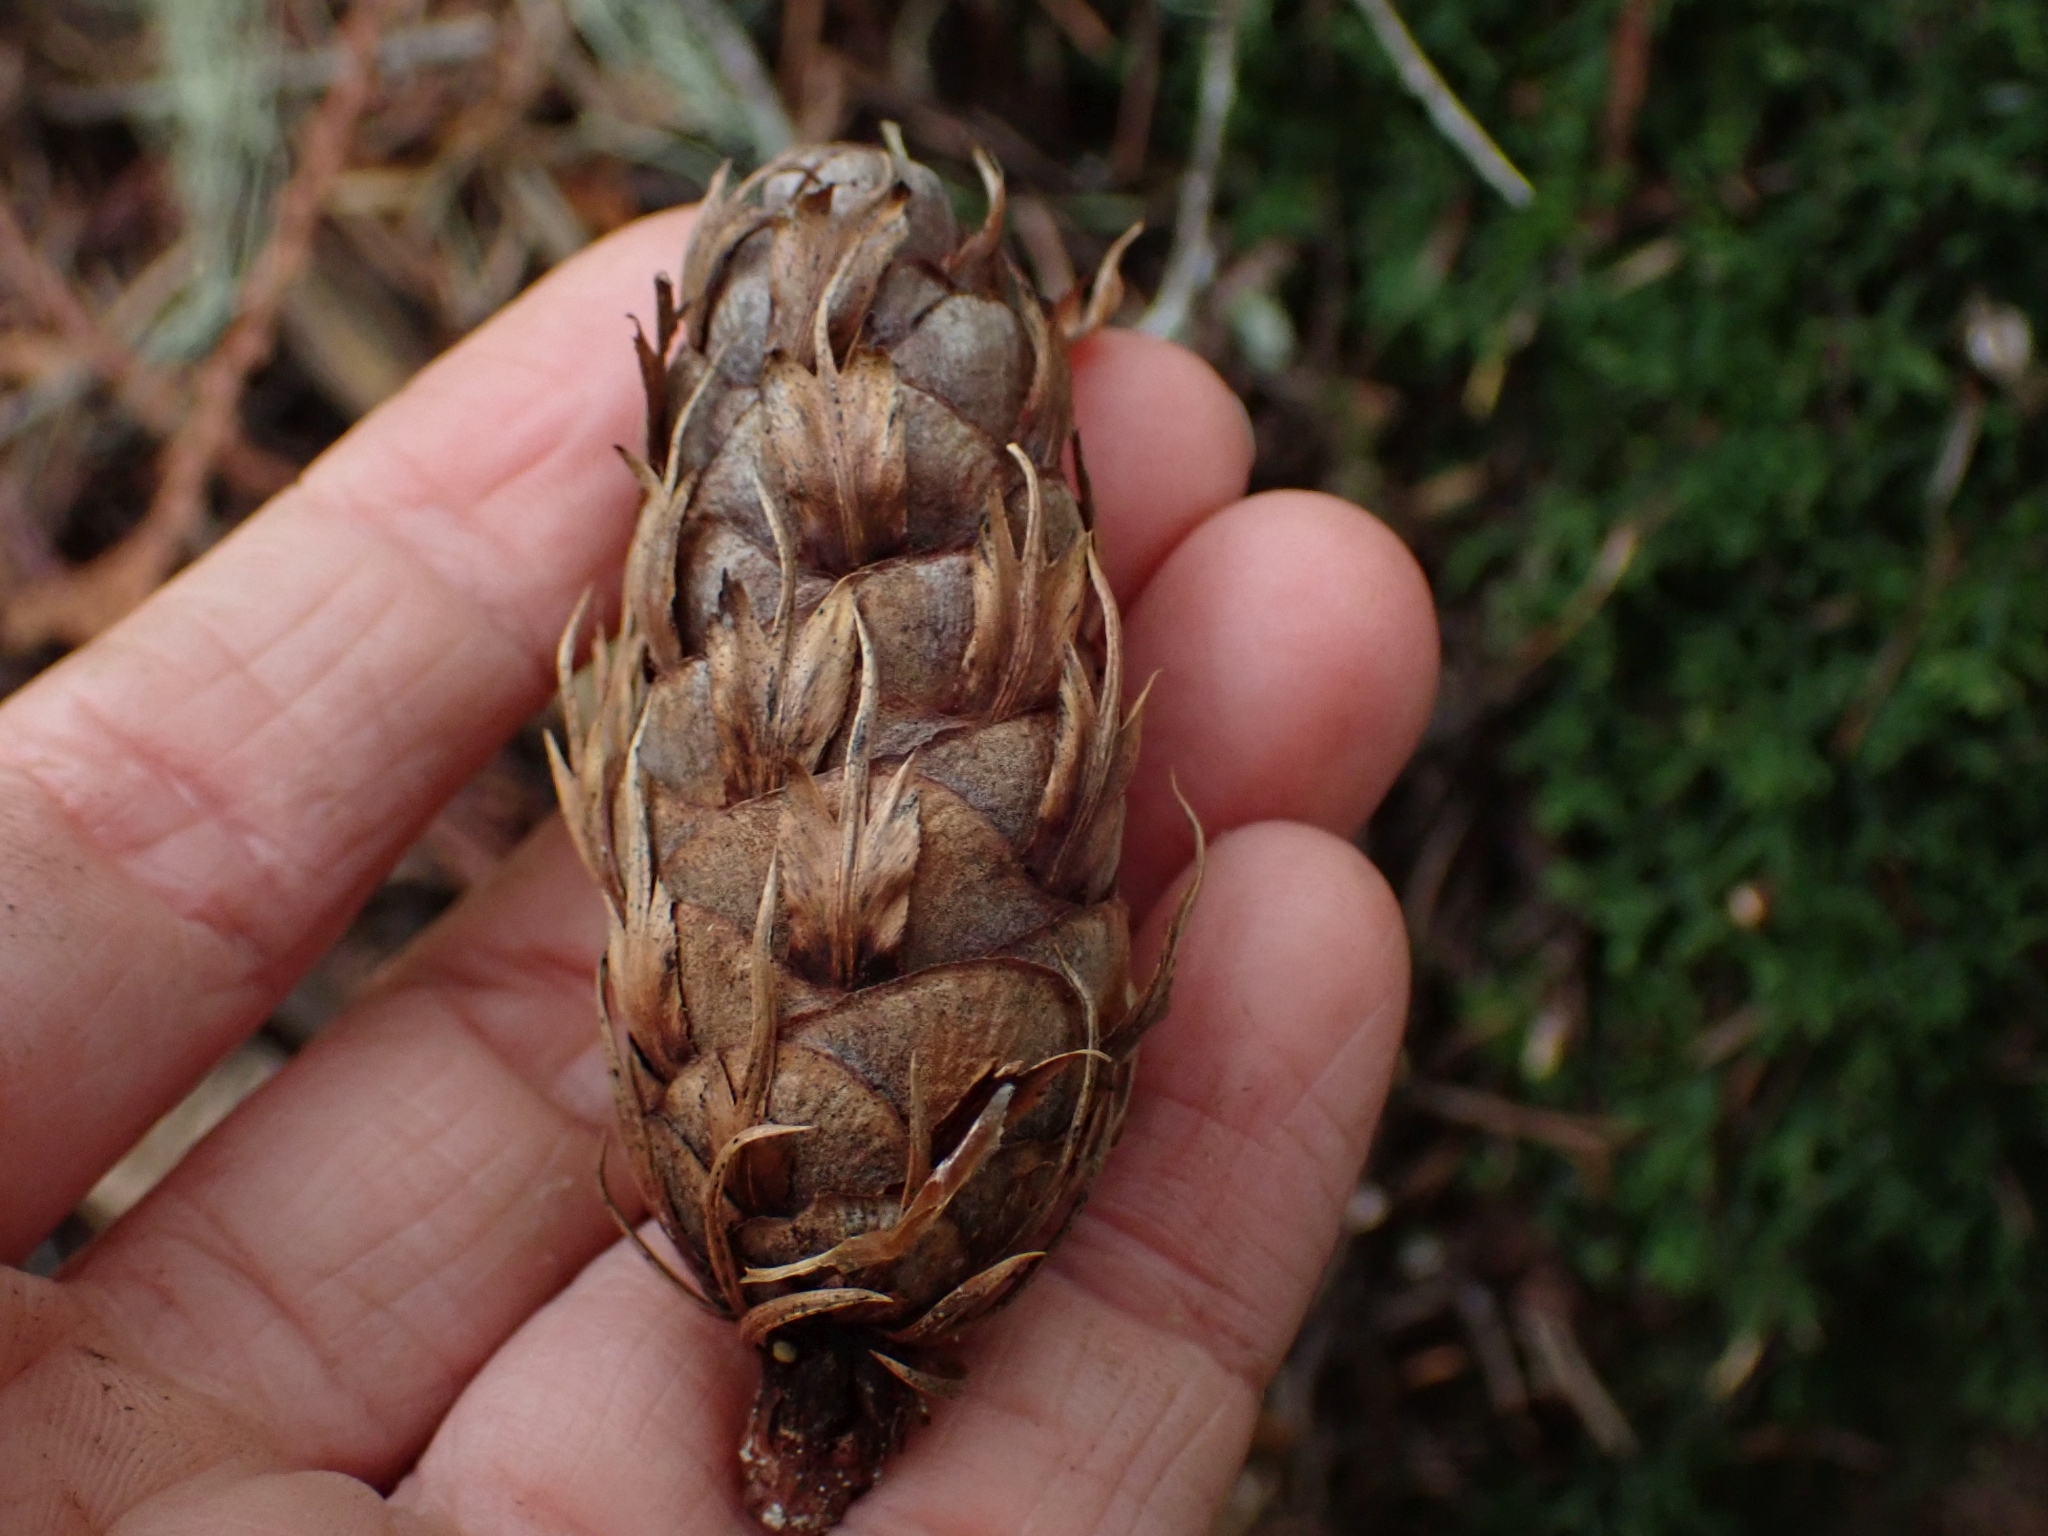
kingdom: Plantae
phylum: Tracheophyta
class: Pinopsida
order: Pinales
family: Pinaceae
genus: Pseudotsuga
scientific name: Pseudotsuga menziesii
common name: Douglas fir
